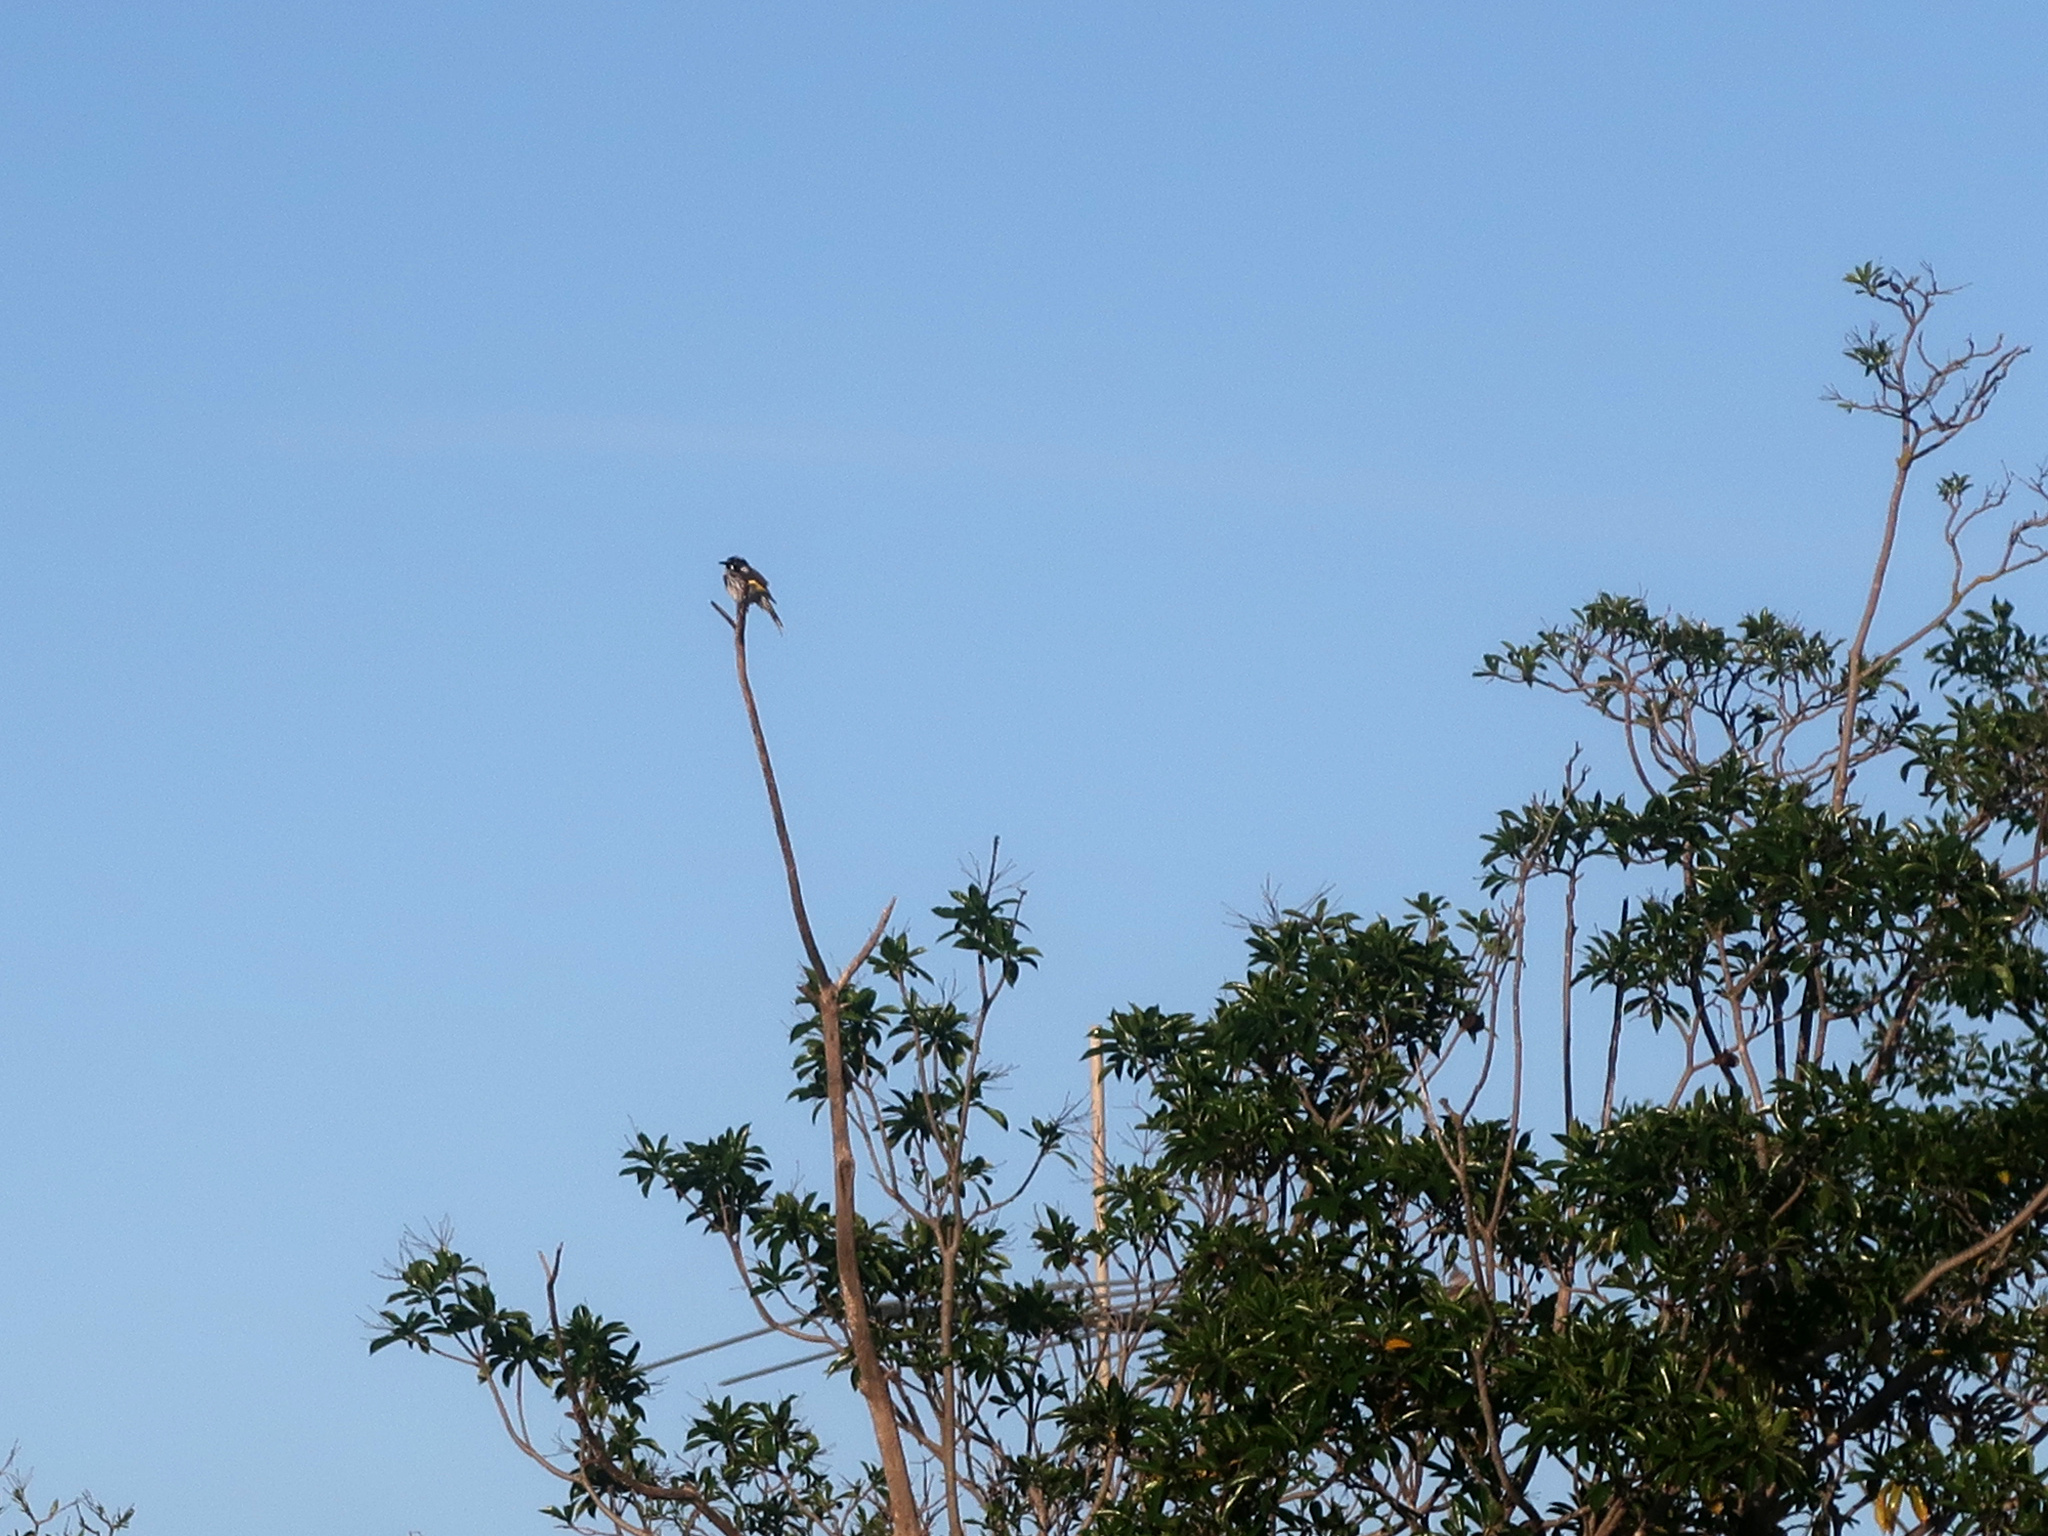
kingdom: Animalia
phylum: Chordata
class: Aves
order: Passeriformes
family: Meliphagidae
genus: Phylidonyris
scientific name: Phylidonyris novaehollandiae
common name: New holland honeyeater
